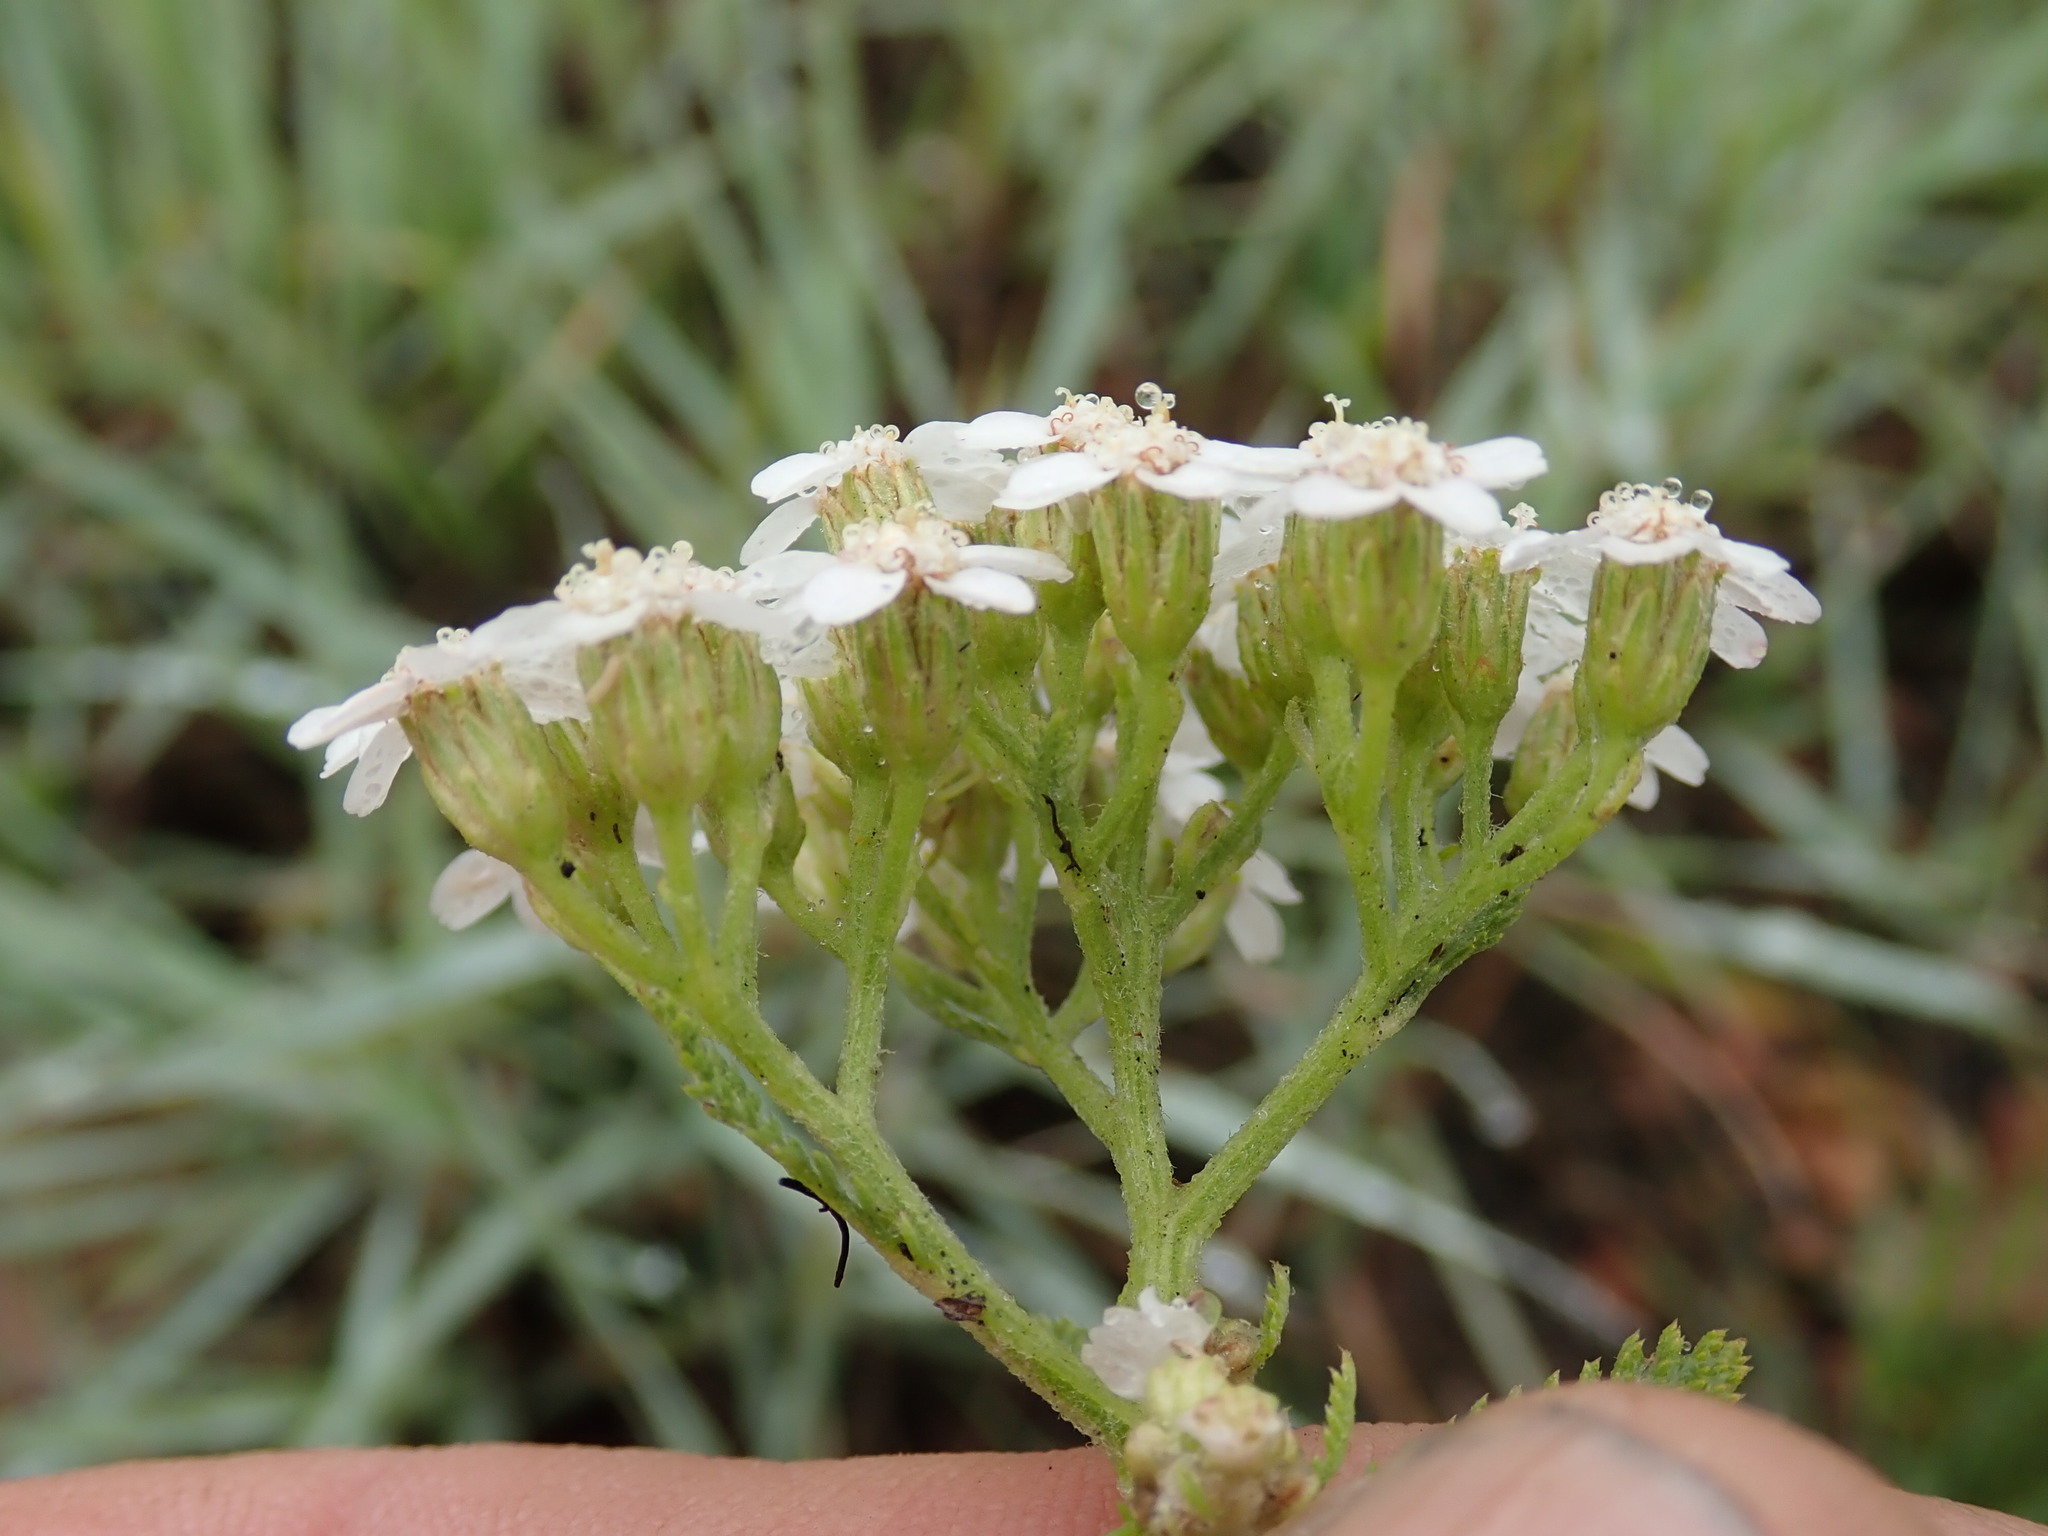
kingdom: Plantae
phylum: Tracheophyta
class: Magnoliopsida
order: Asterales
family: Asteraceae
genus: Achillea
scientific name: Achillea millefolium
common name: Yarrow
